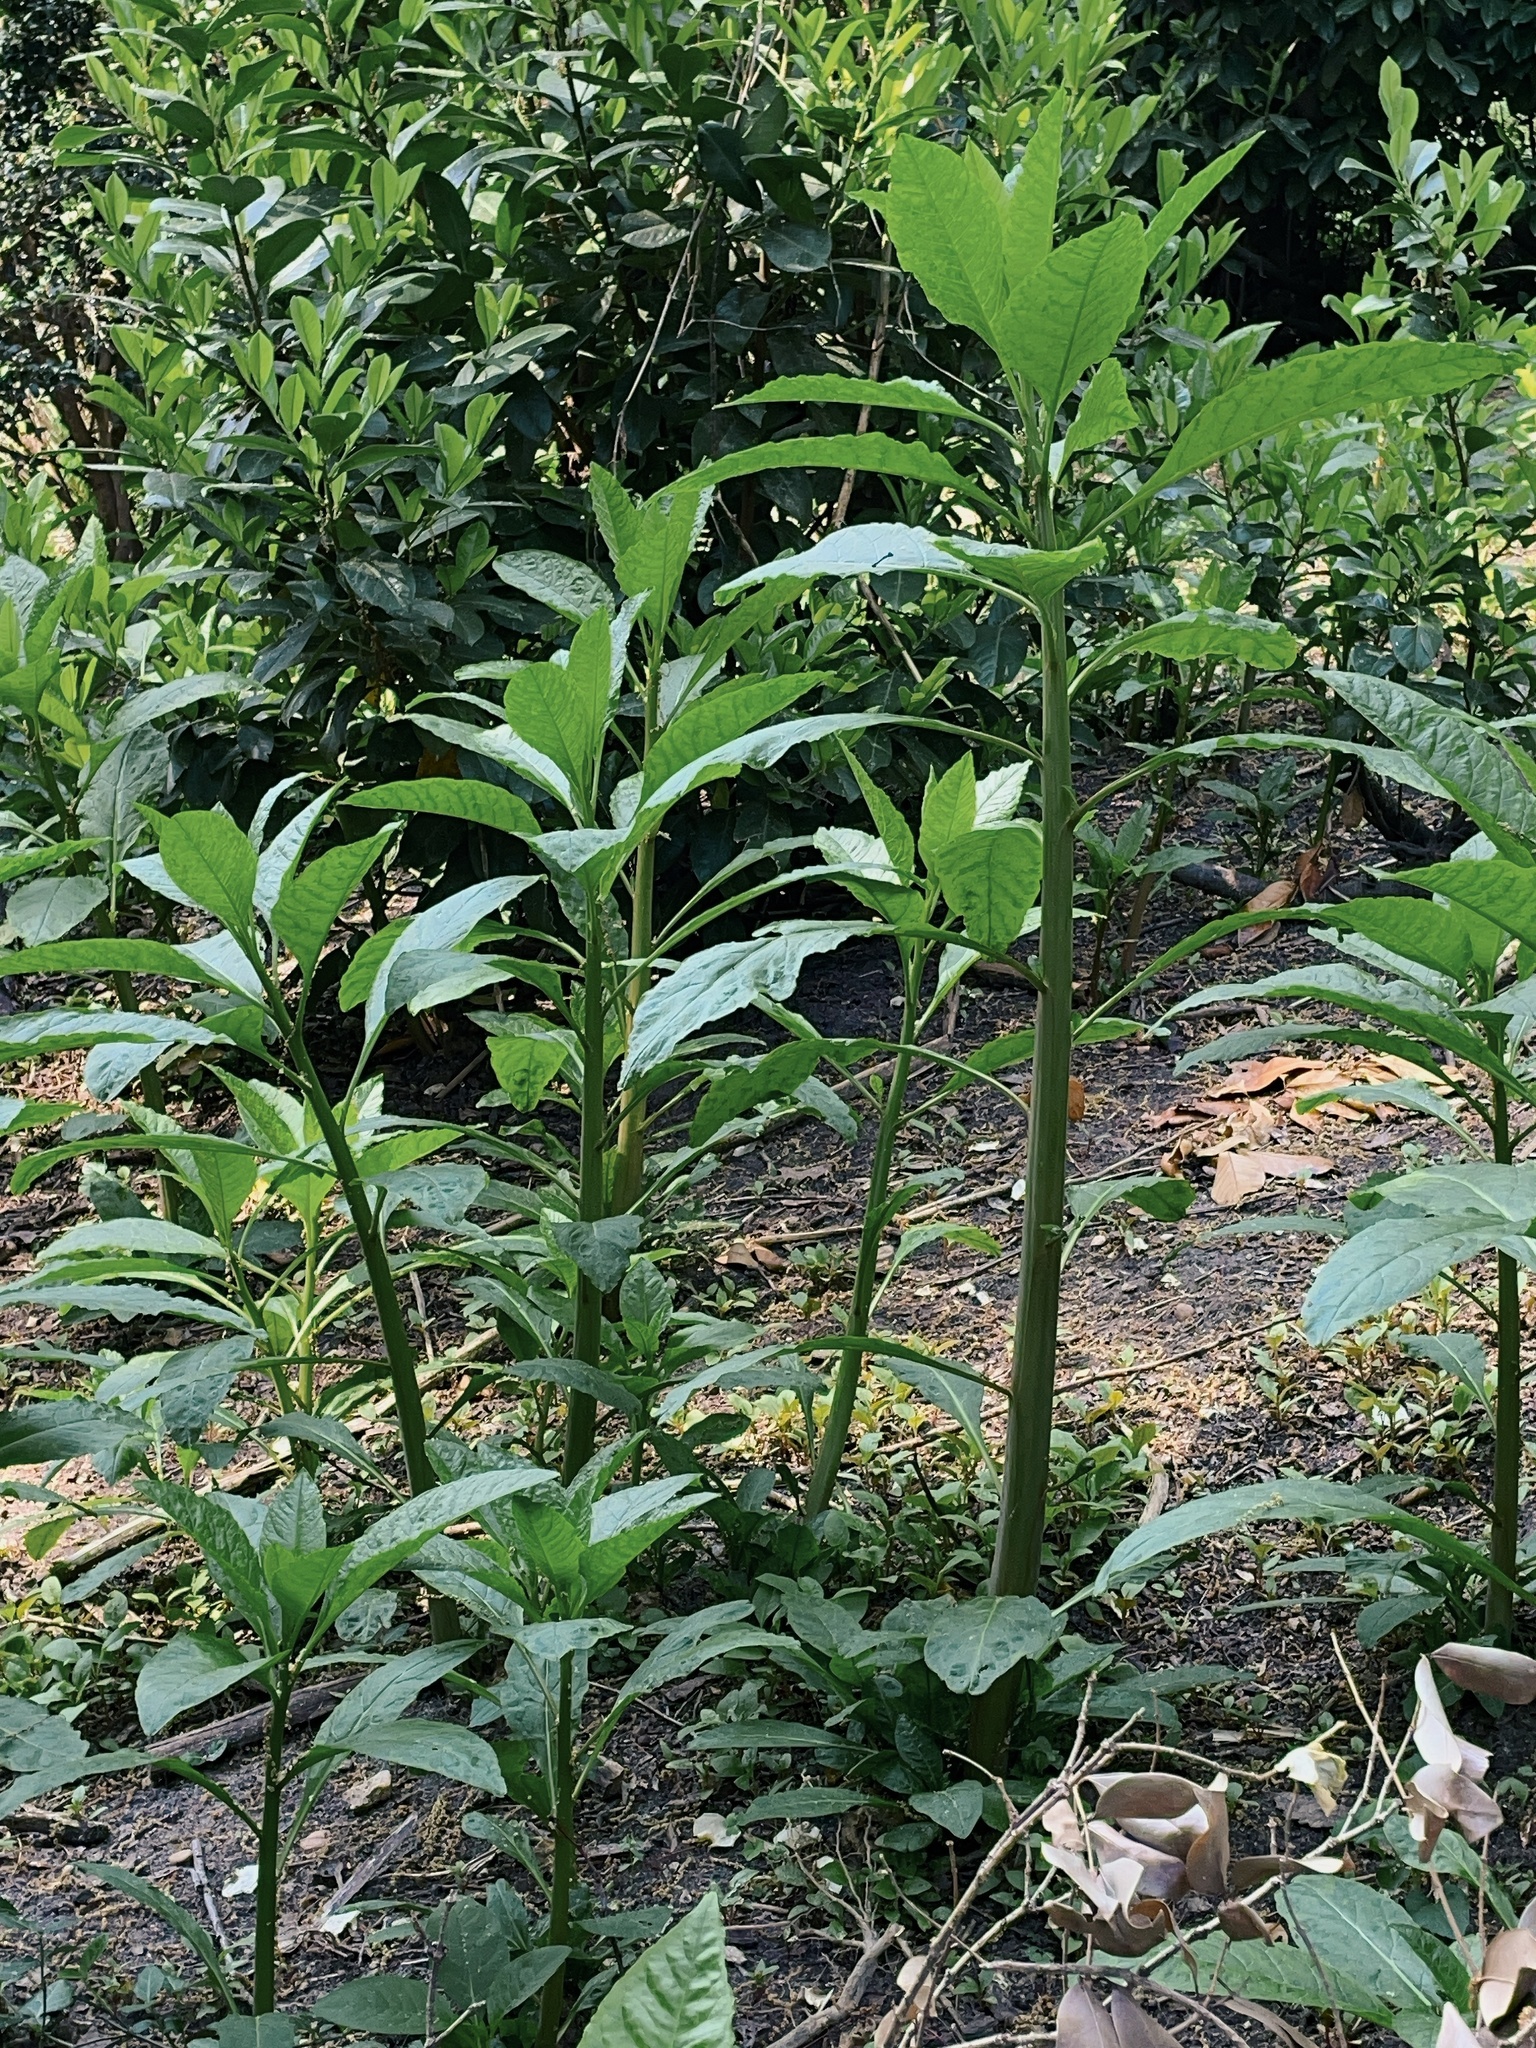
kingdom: Plantae
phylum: Tracheophyta
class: Magnoliopsida
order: Caryophyllales
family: Phytolaccaceae
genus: Phytolacca
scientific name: Phytolacca americana
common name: American pokeweed
